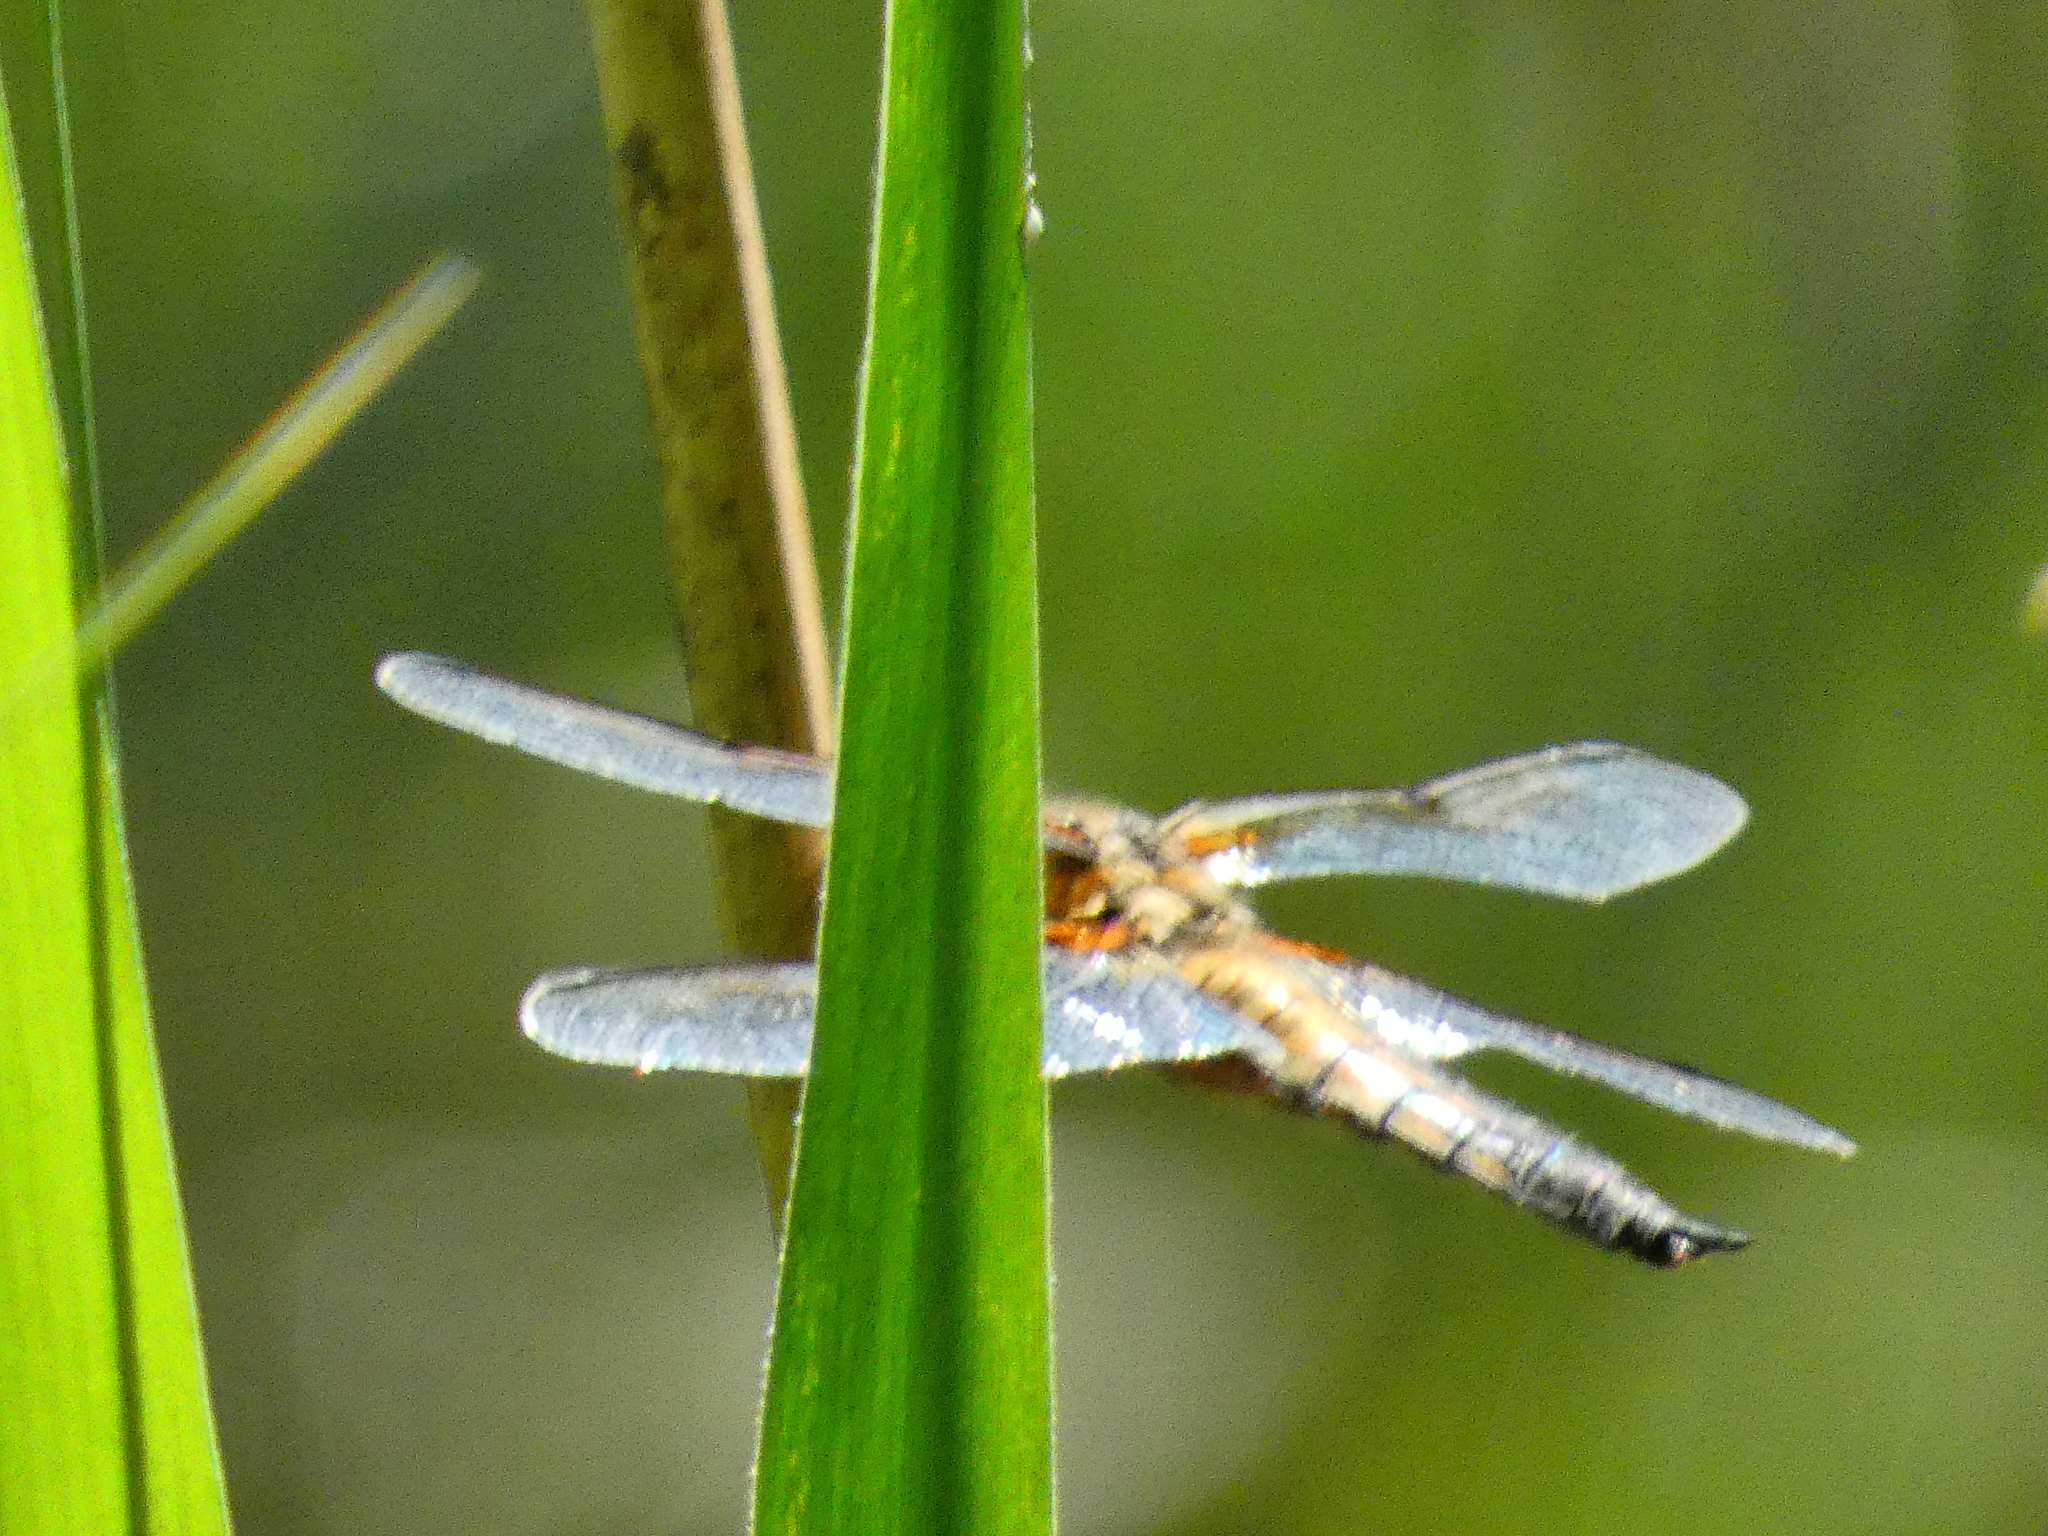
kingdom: Animalia
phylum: Arthropoda
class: Insecta
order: Odonata
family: Libellulidae
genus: Libellula
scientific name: Libellula quadrimaculata
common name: Four-spotted chaser
